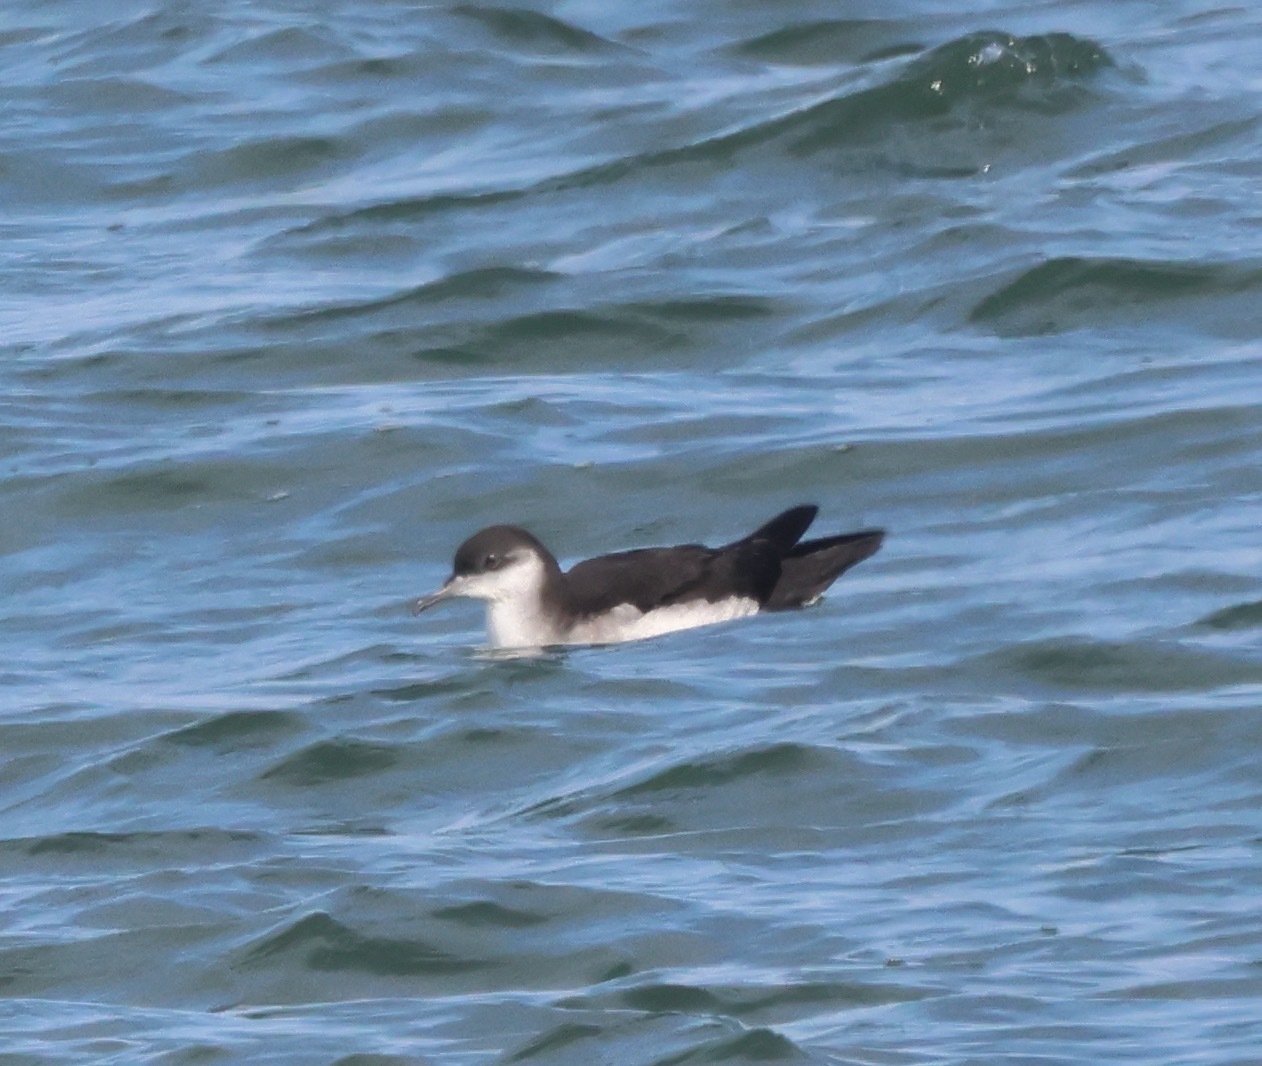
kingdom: Animalia
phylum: Chordata
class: Aves
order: Procellariiformes
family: Procellariidae
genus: Puffinus
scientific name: Puffinus puffinus
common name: Manx shearwater
